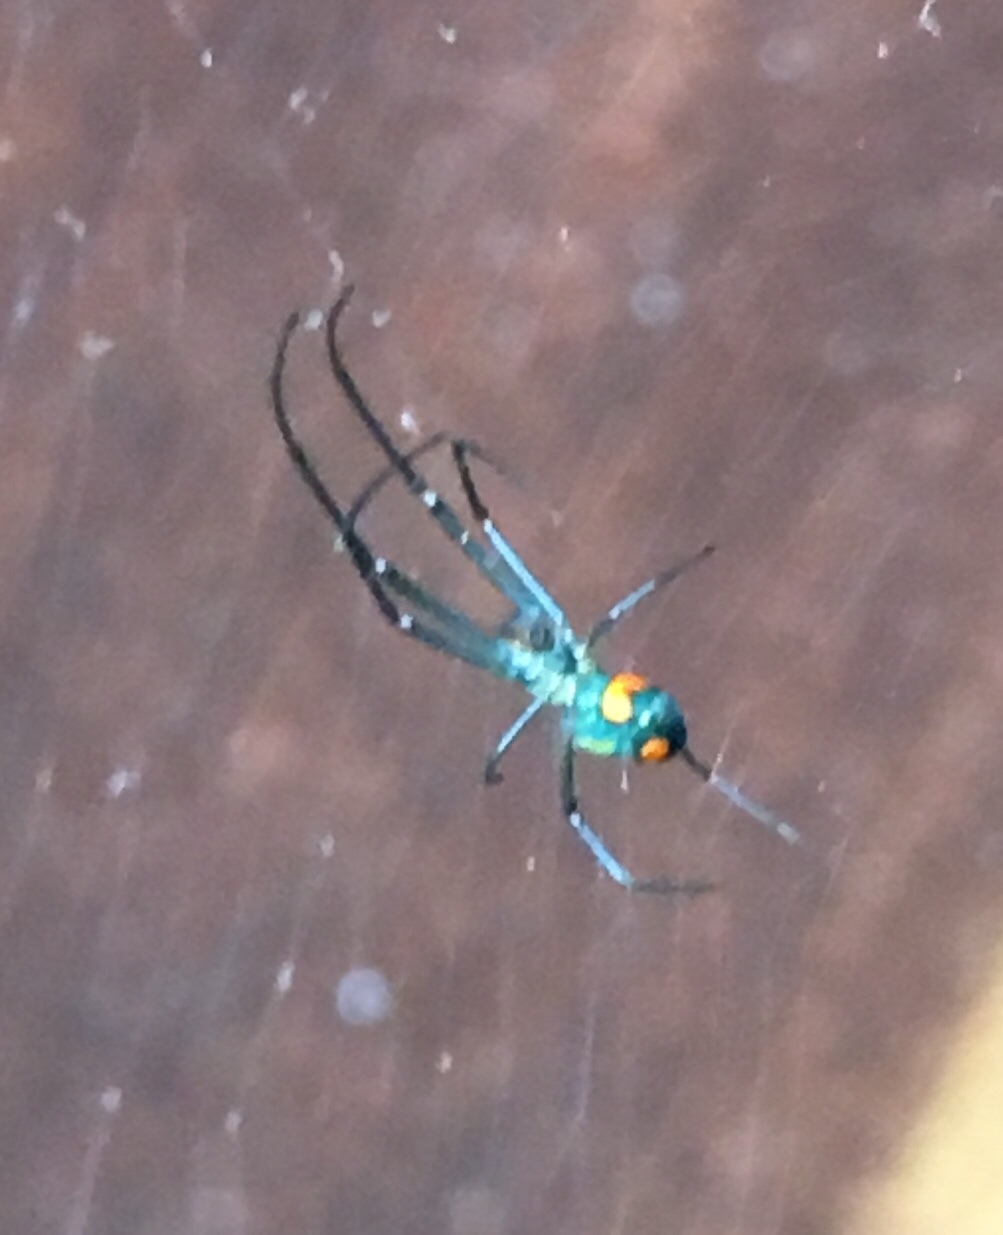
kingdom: Animalia
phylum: Arthropoda
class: Arachnida
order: Araneae
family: Tetragnathidae
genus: Leucauge
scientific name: Leucauge argyrobapta
